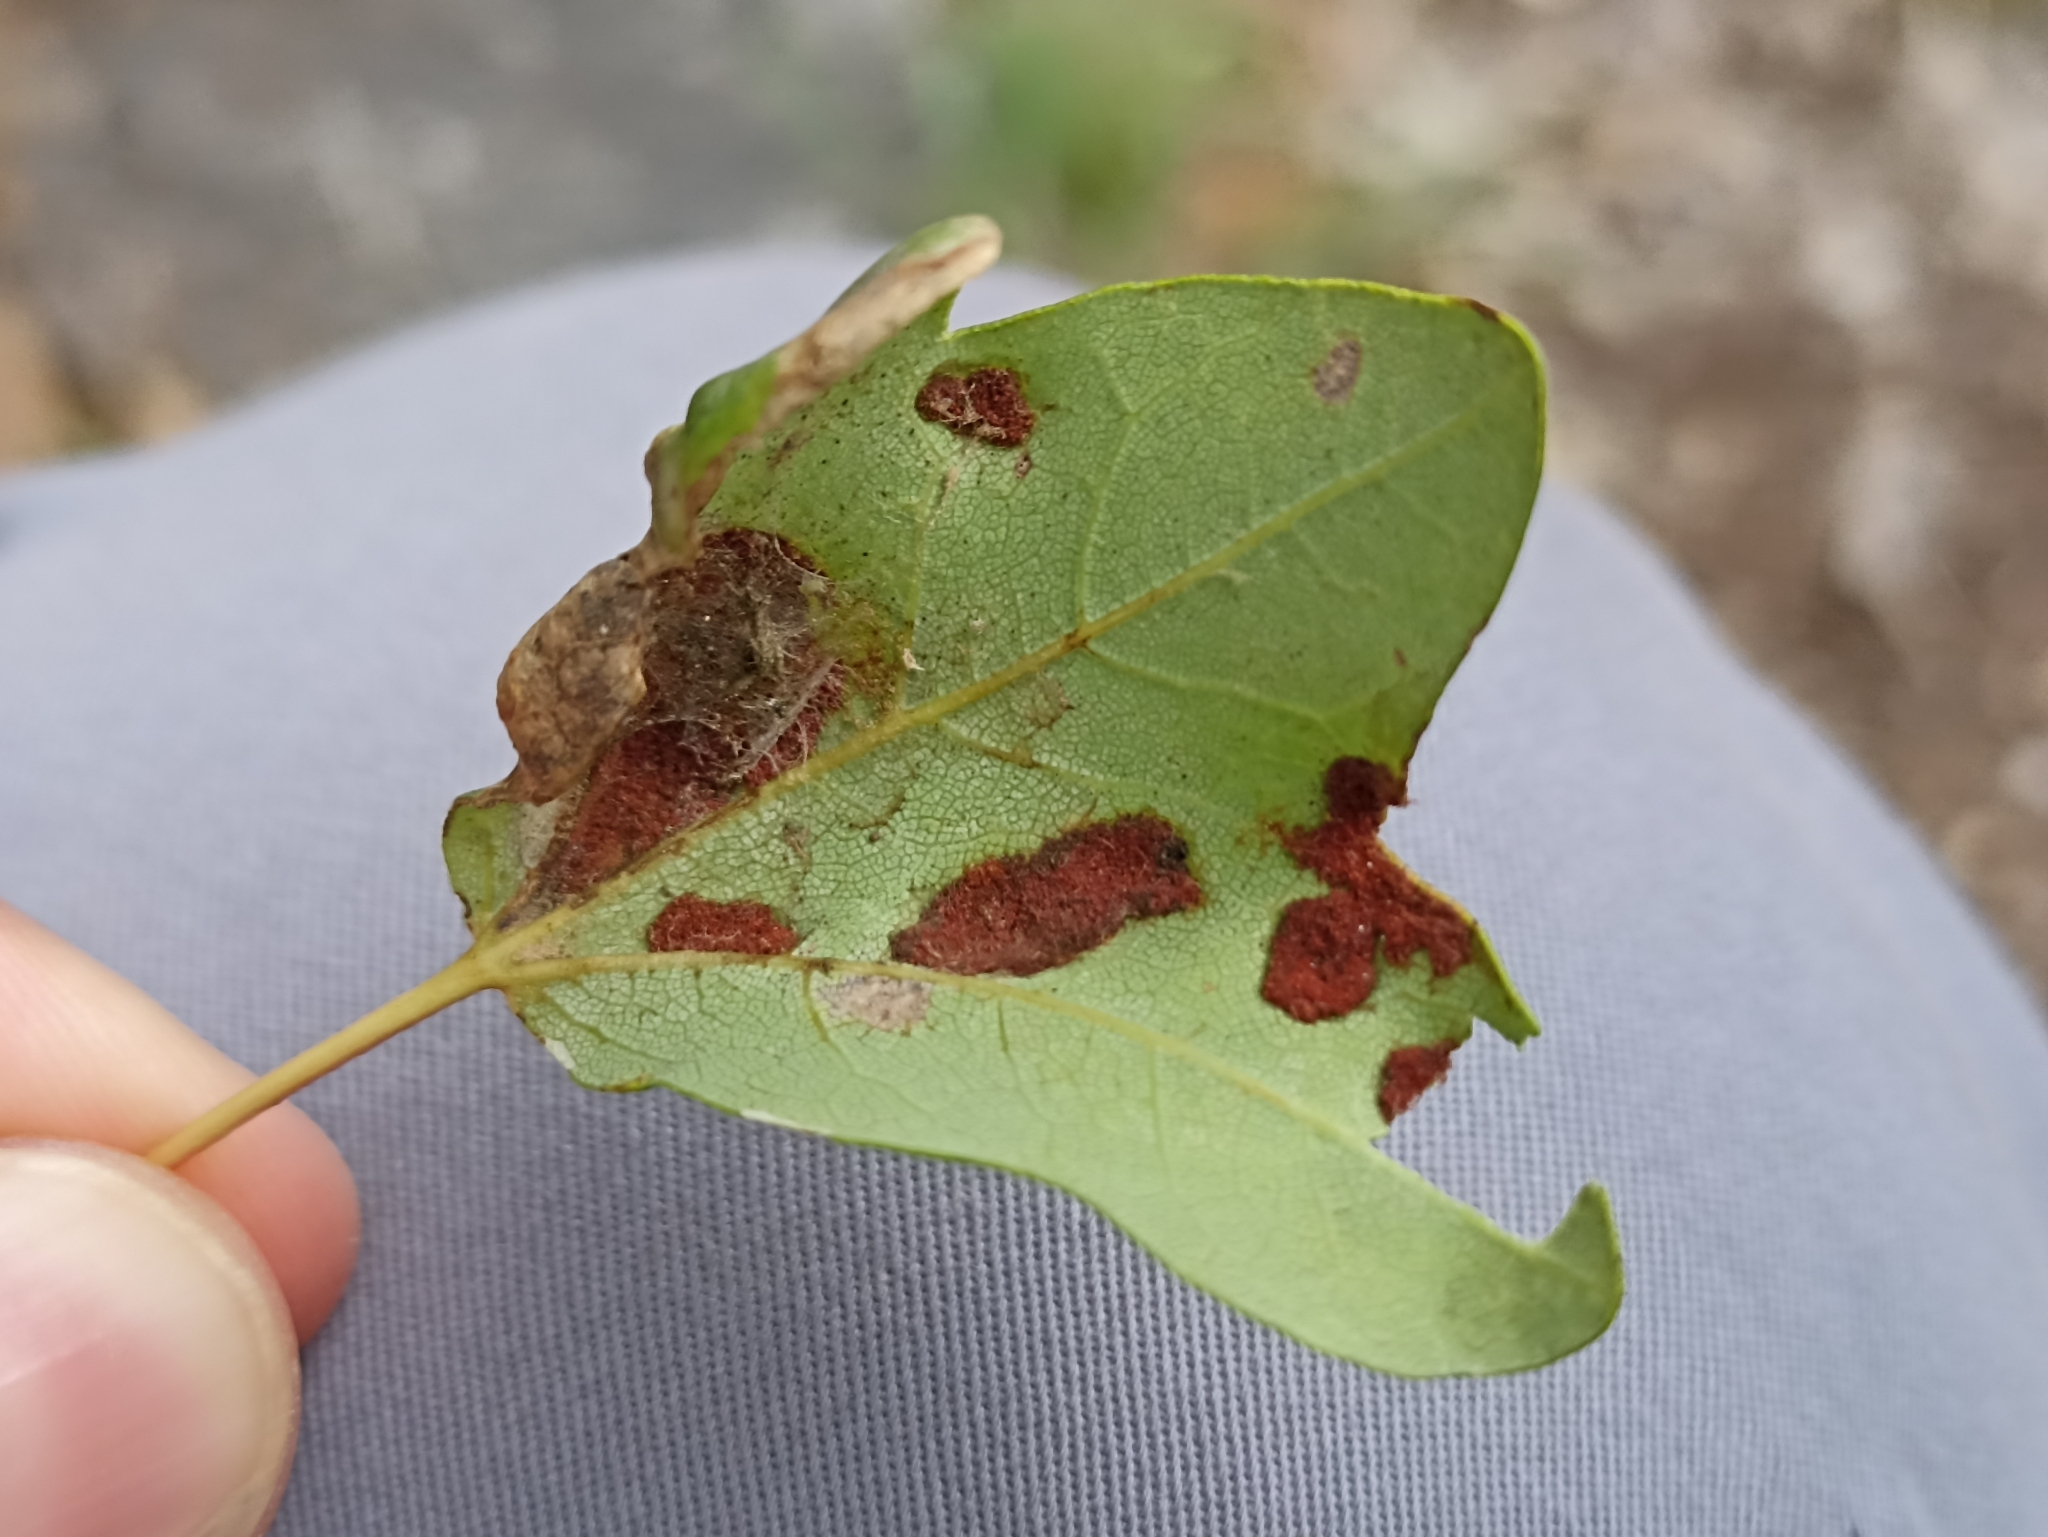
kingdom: Animalia
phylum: Arthropoda
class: Arachnida
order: Trombidiformes
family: Eriophyidae
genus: Aceria
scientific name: Aceria monspessulani
